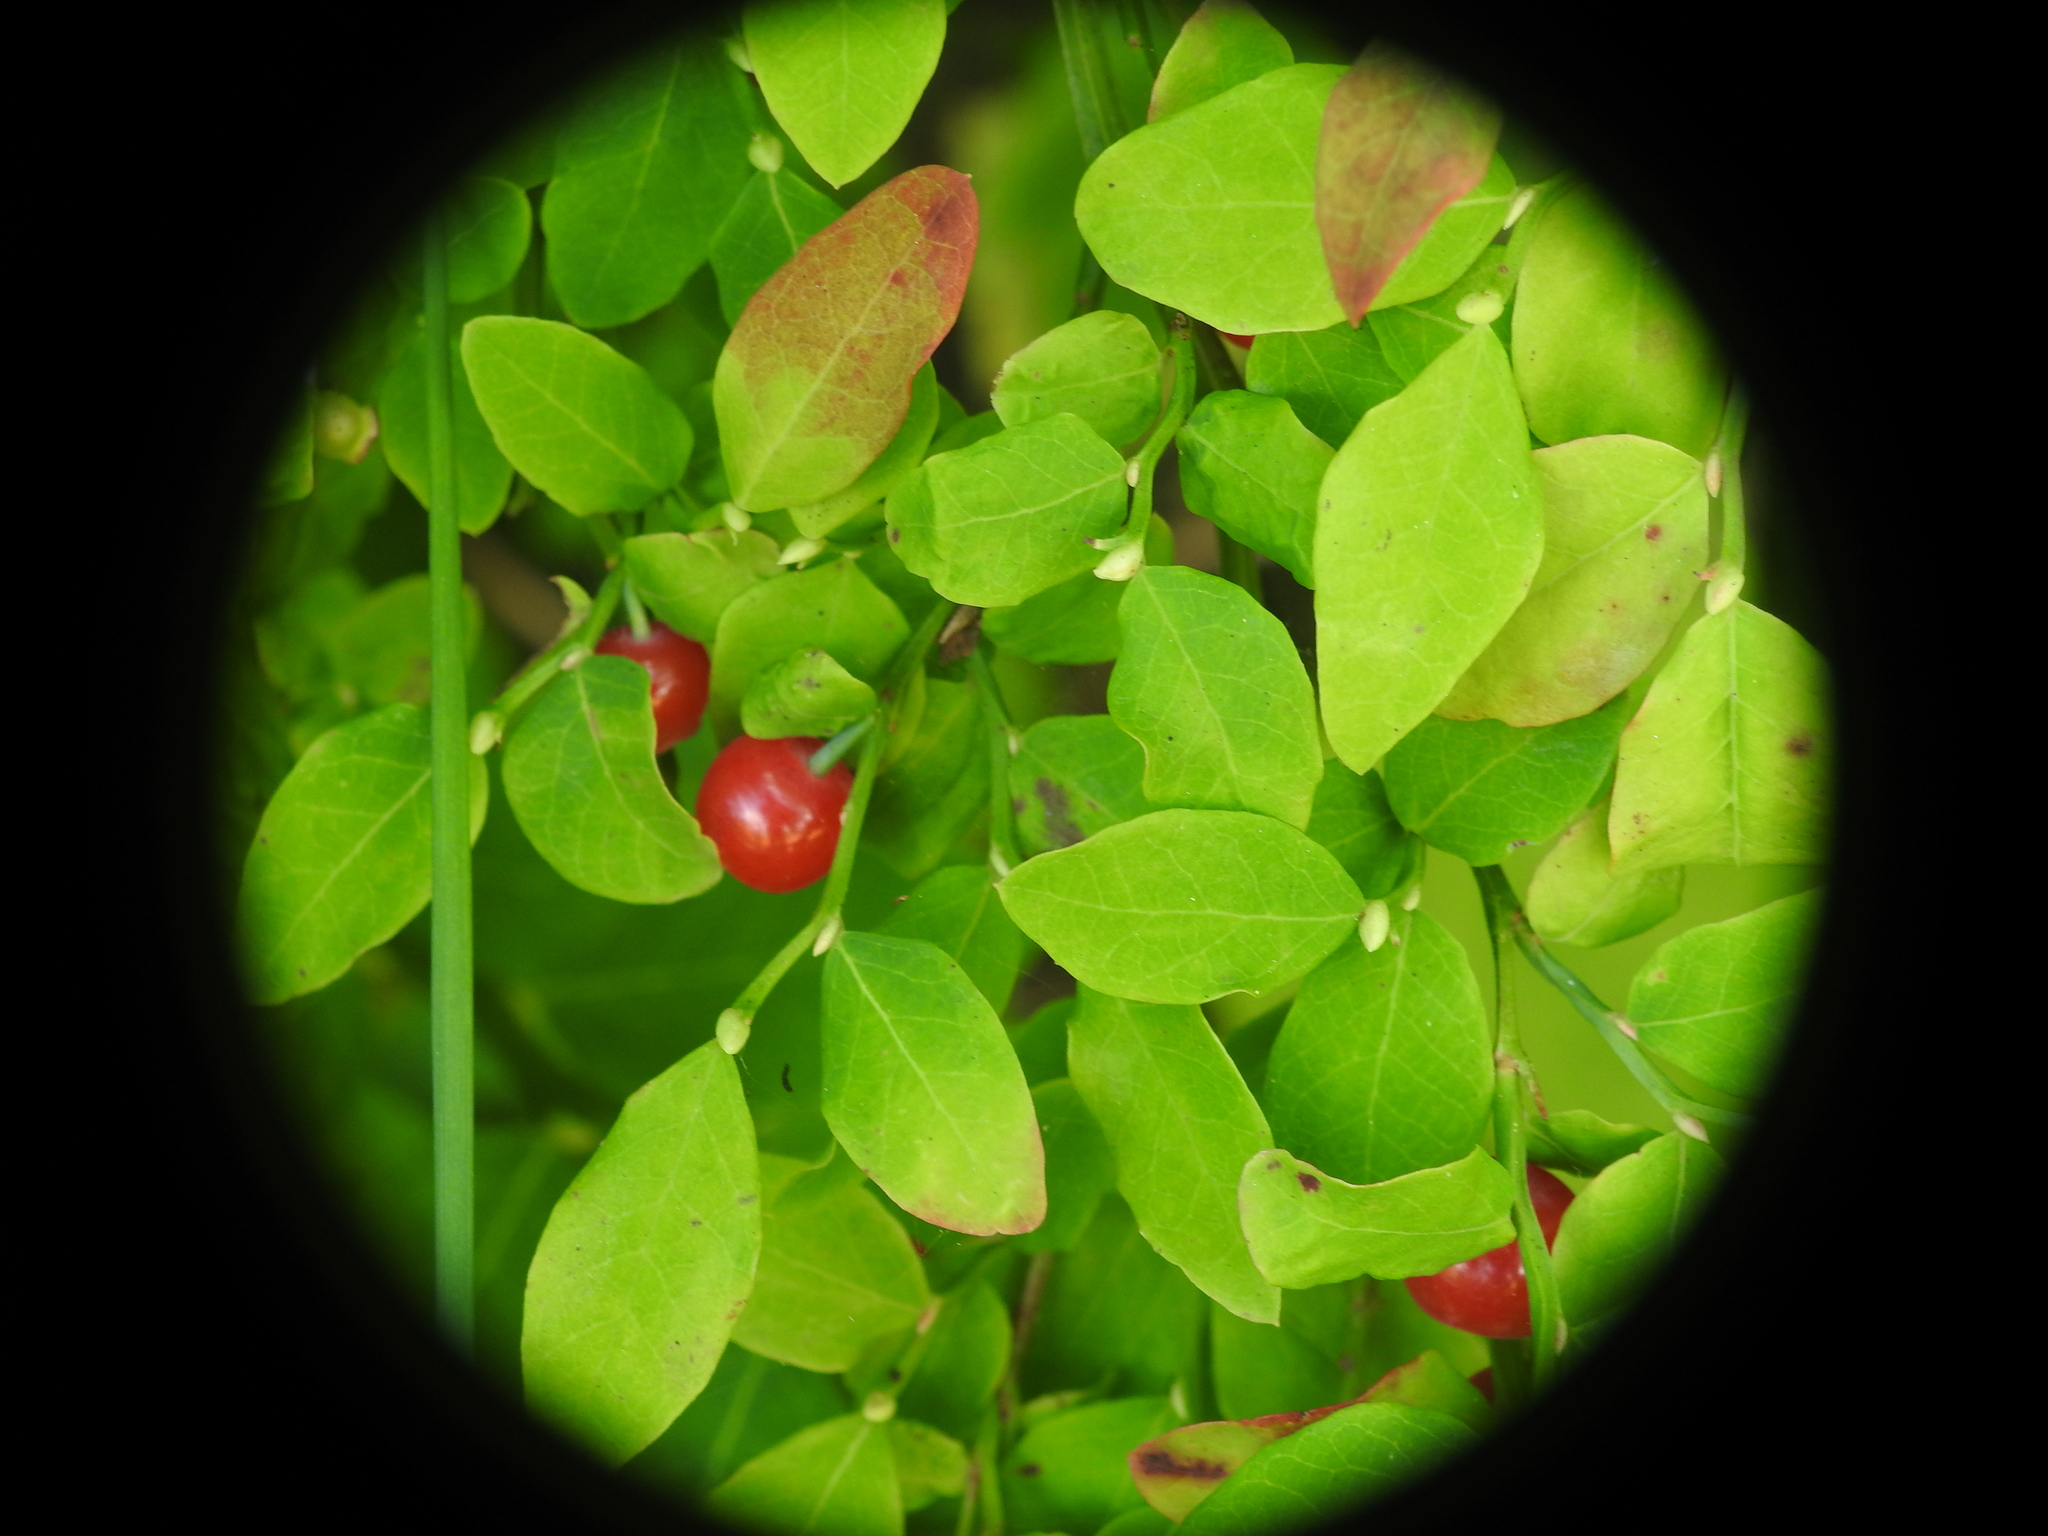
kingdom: Plantae
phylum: Tracheophyta
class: Magnoliopsida
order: Ericales
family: Ericaceae
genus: Vaccinium
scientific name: Vaccinium parvifolium
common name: Red-huckleberry
